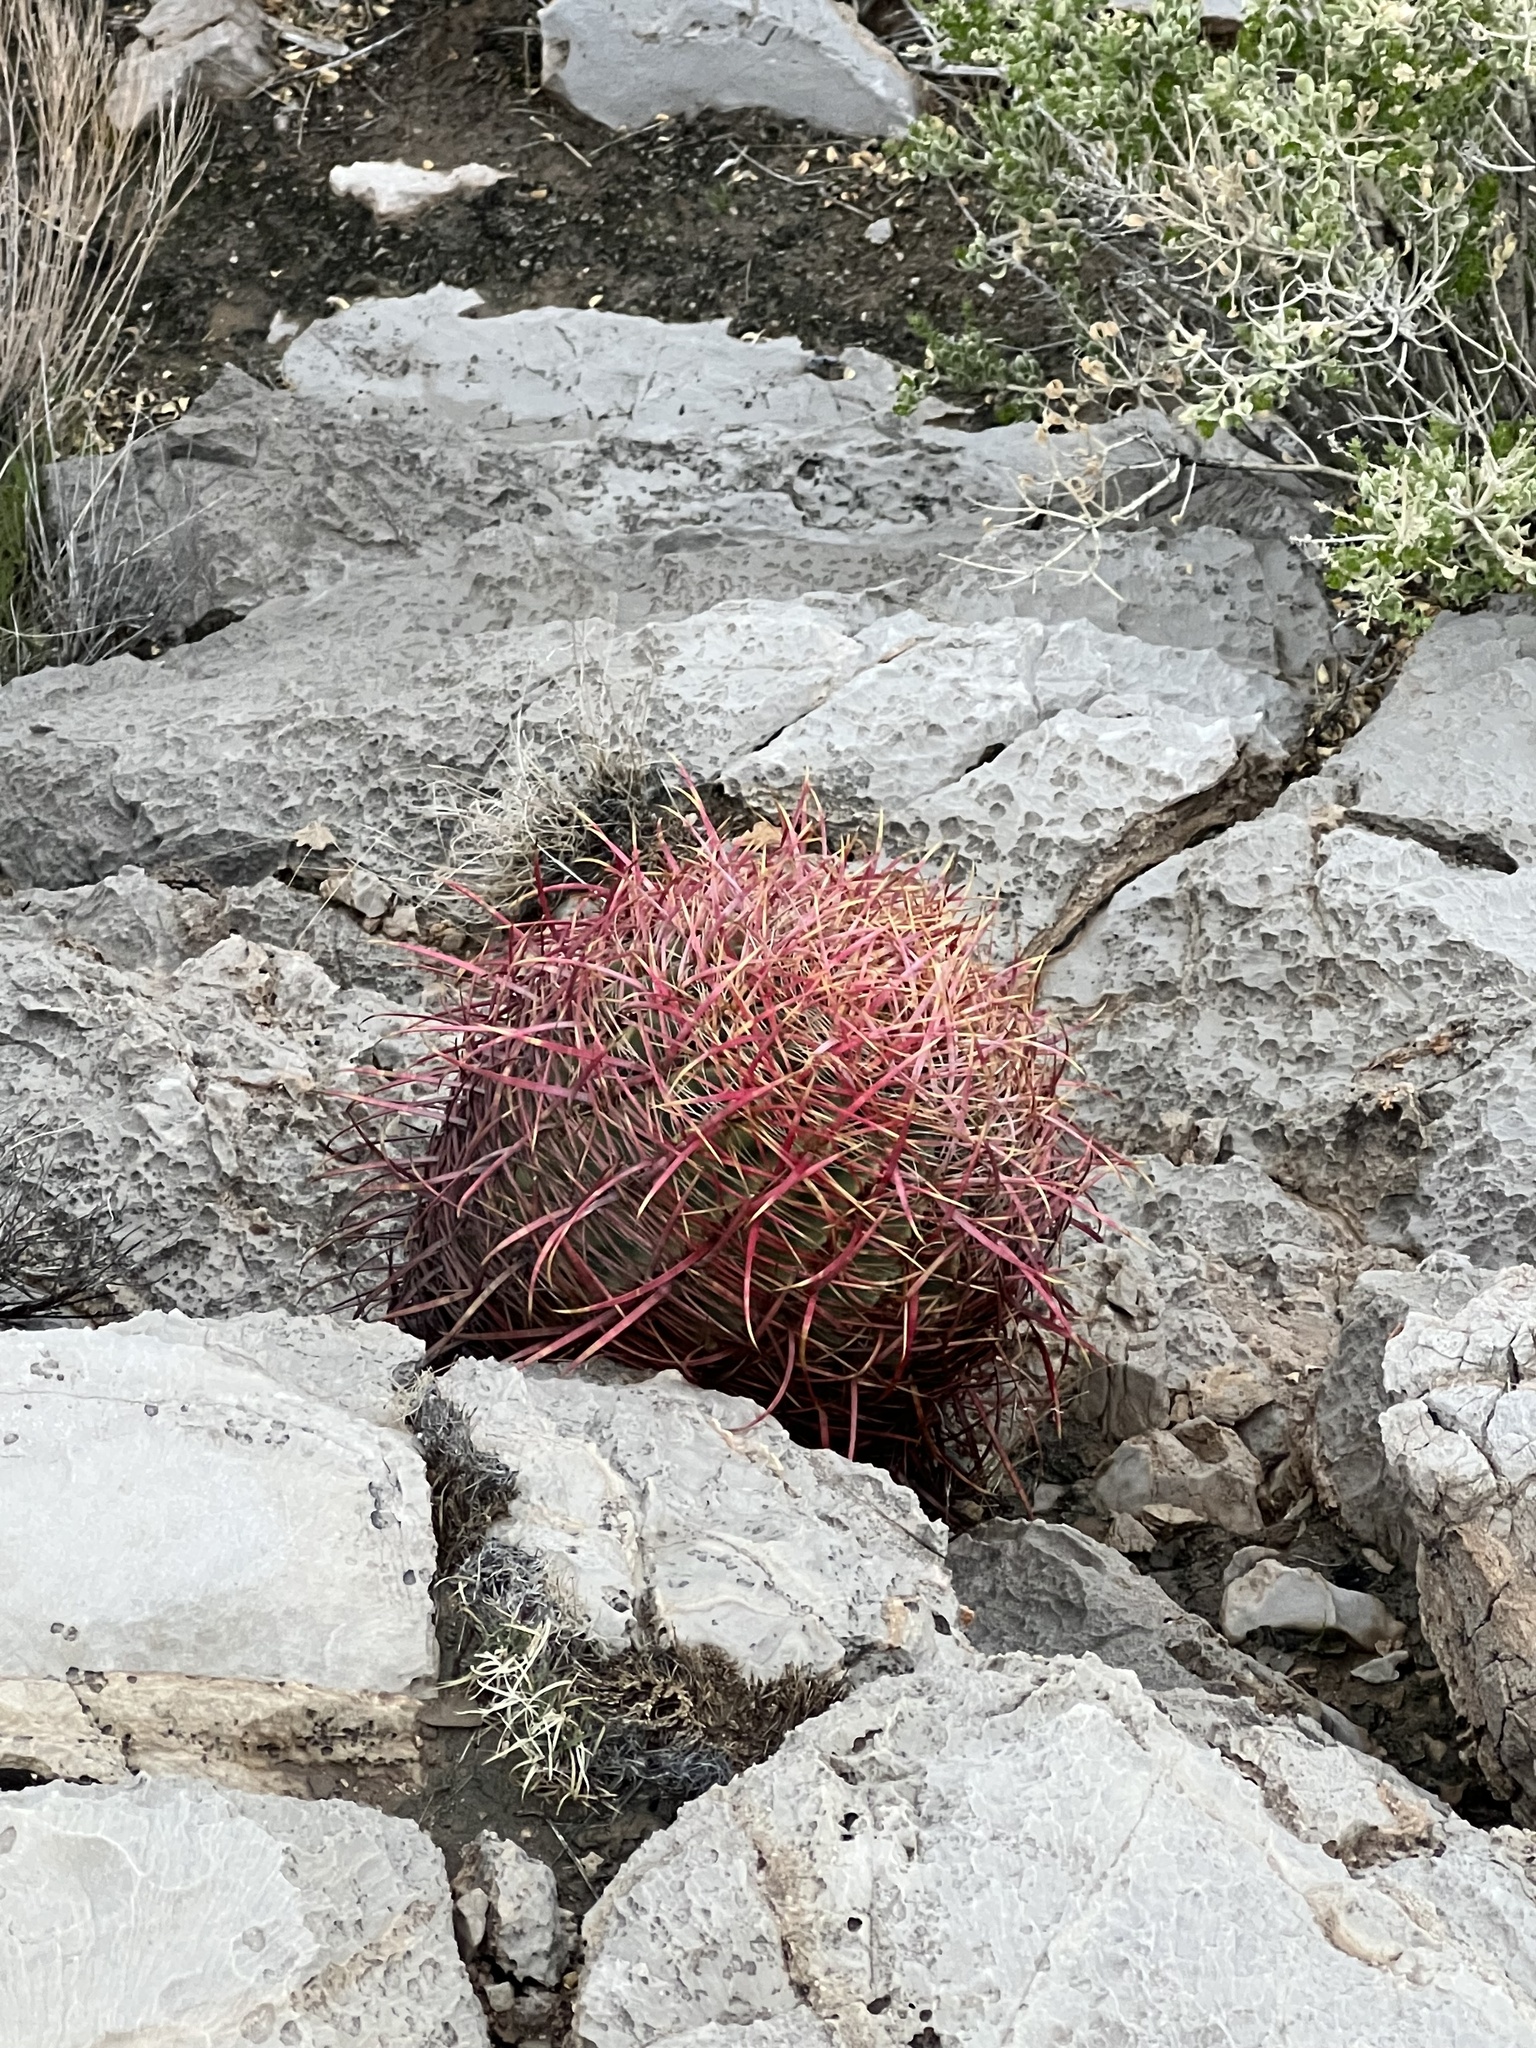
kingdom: Plantae
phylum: Tracheophyta
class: Magnoliopsida
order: Caryophyllales
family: Cactaceae
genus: Ferocactus
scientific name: Ferocactus cylindraceus
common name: California barrel cactus
